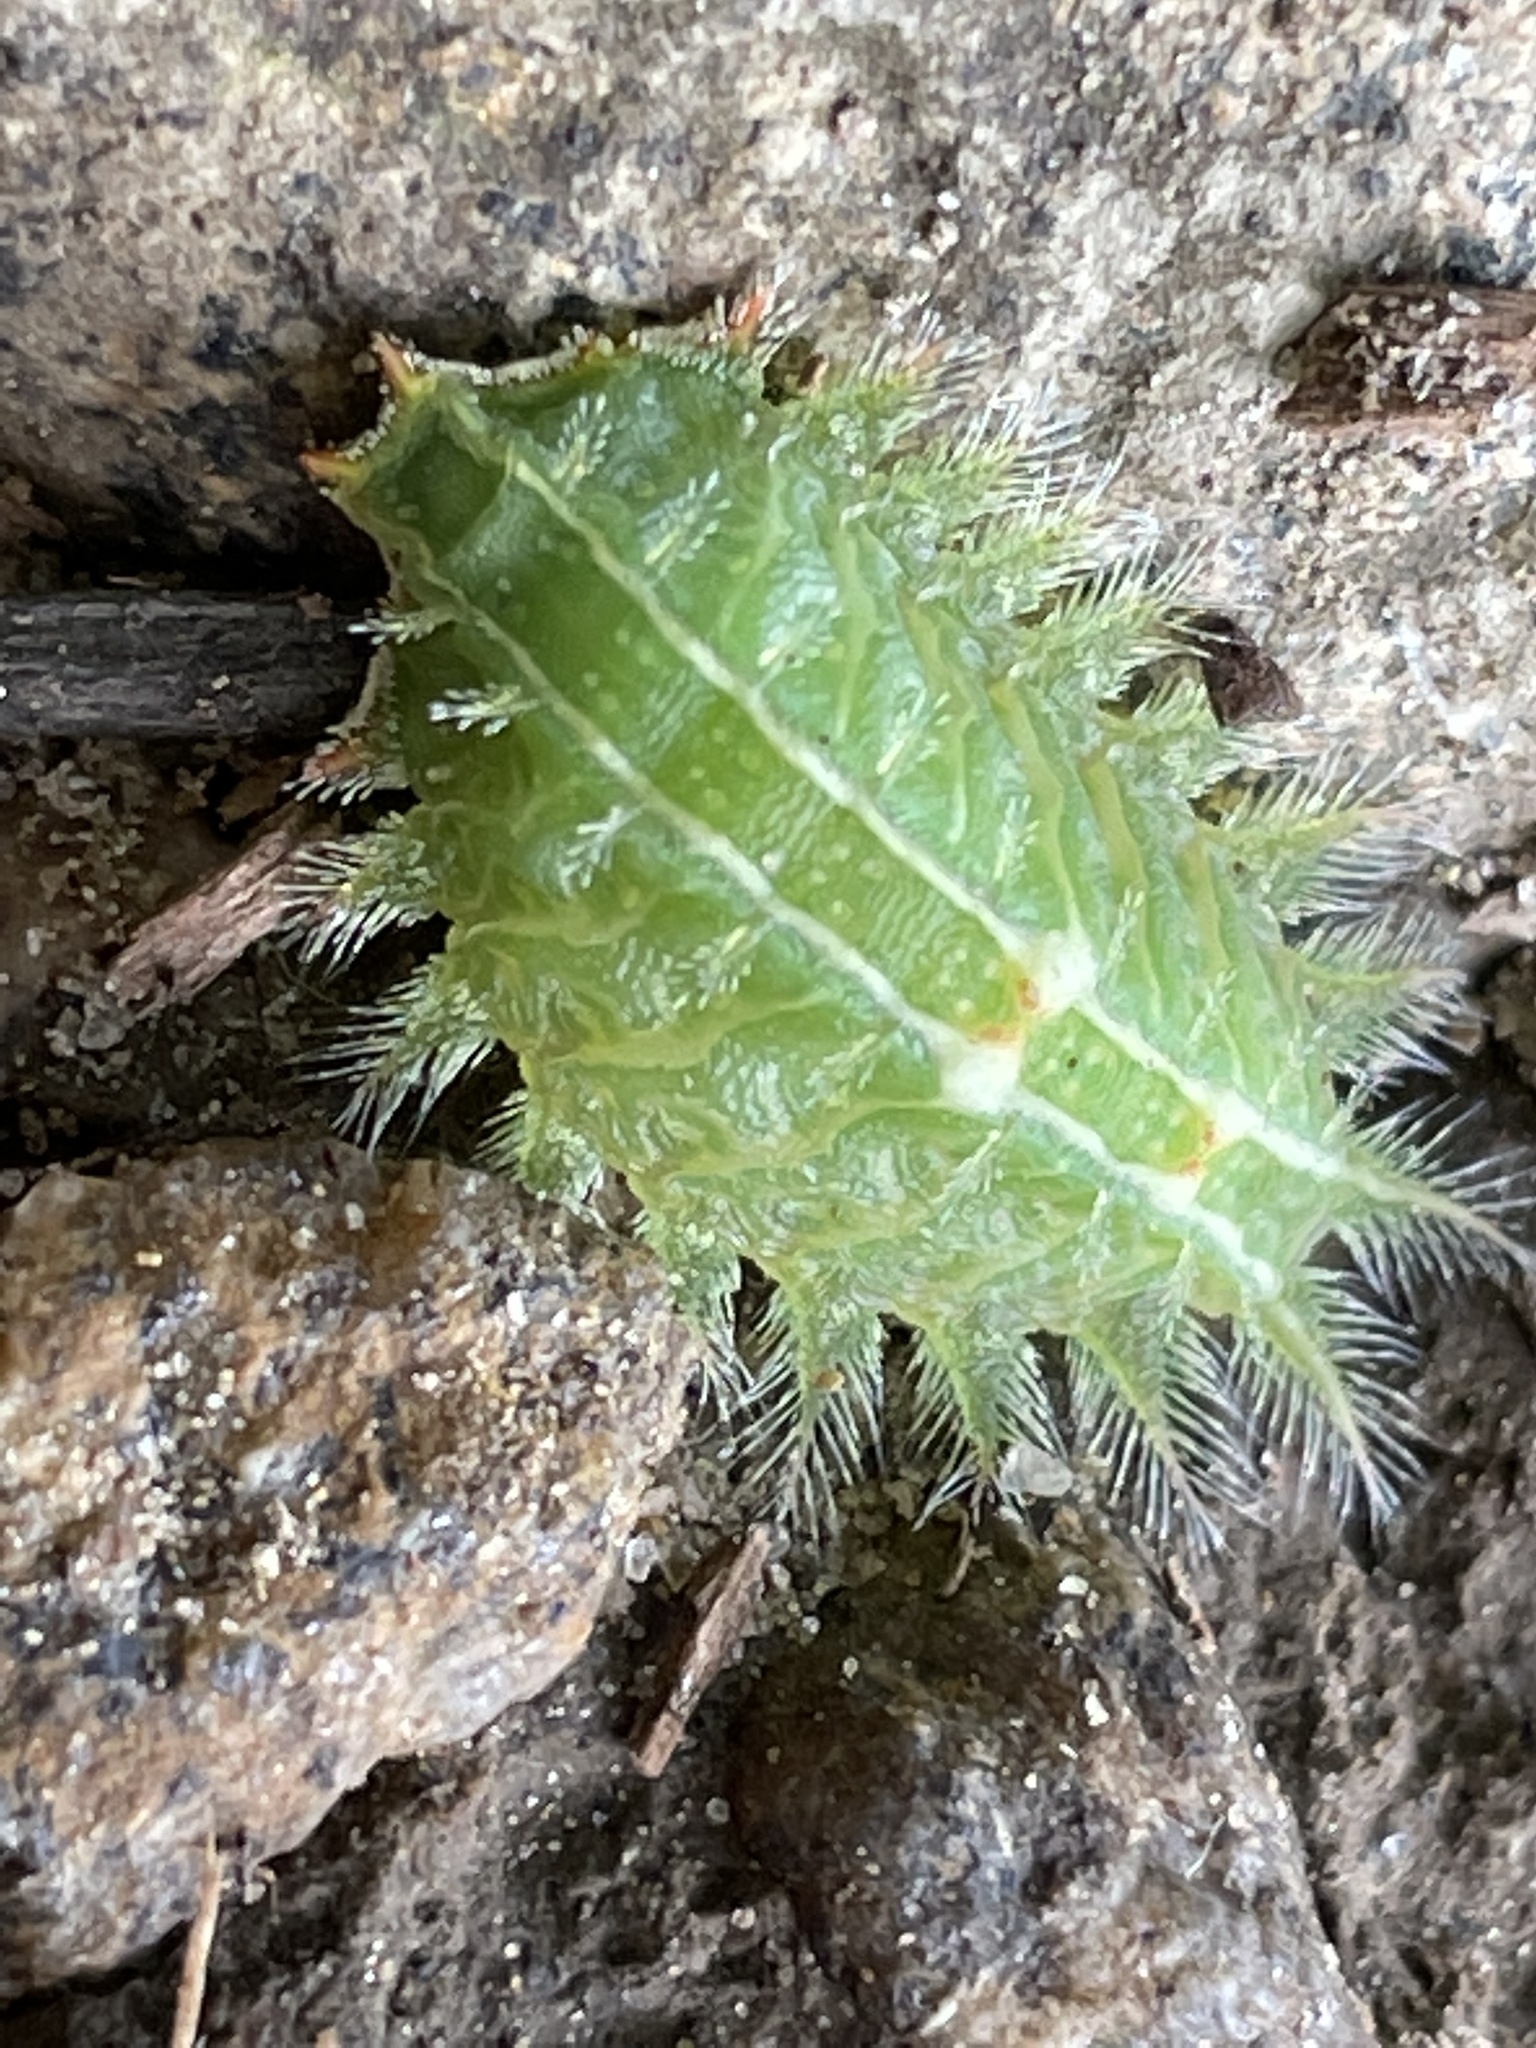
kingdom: Animalia
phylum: Arthropoda
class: Insecta
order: Lepidoptera
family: Limacodidae
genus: Isa
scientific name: Isa textula
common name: Crowned slug moth
